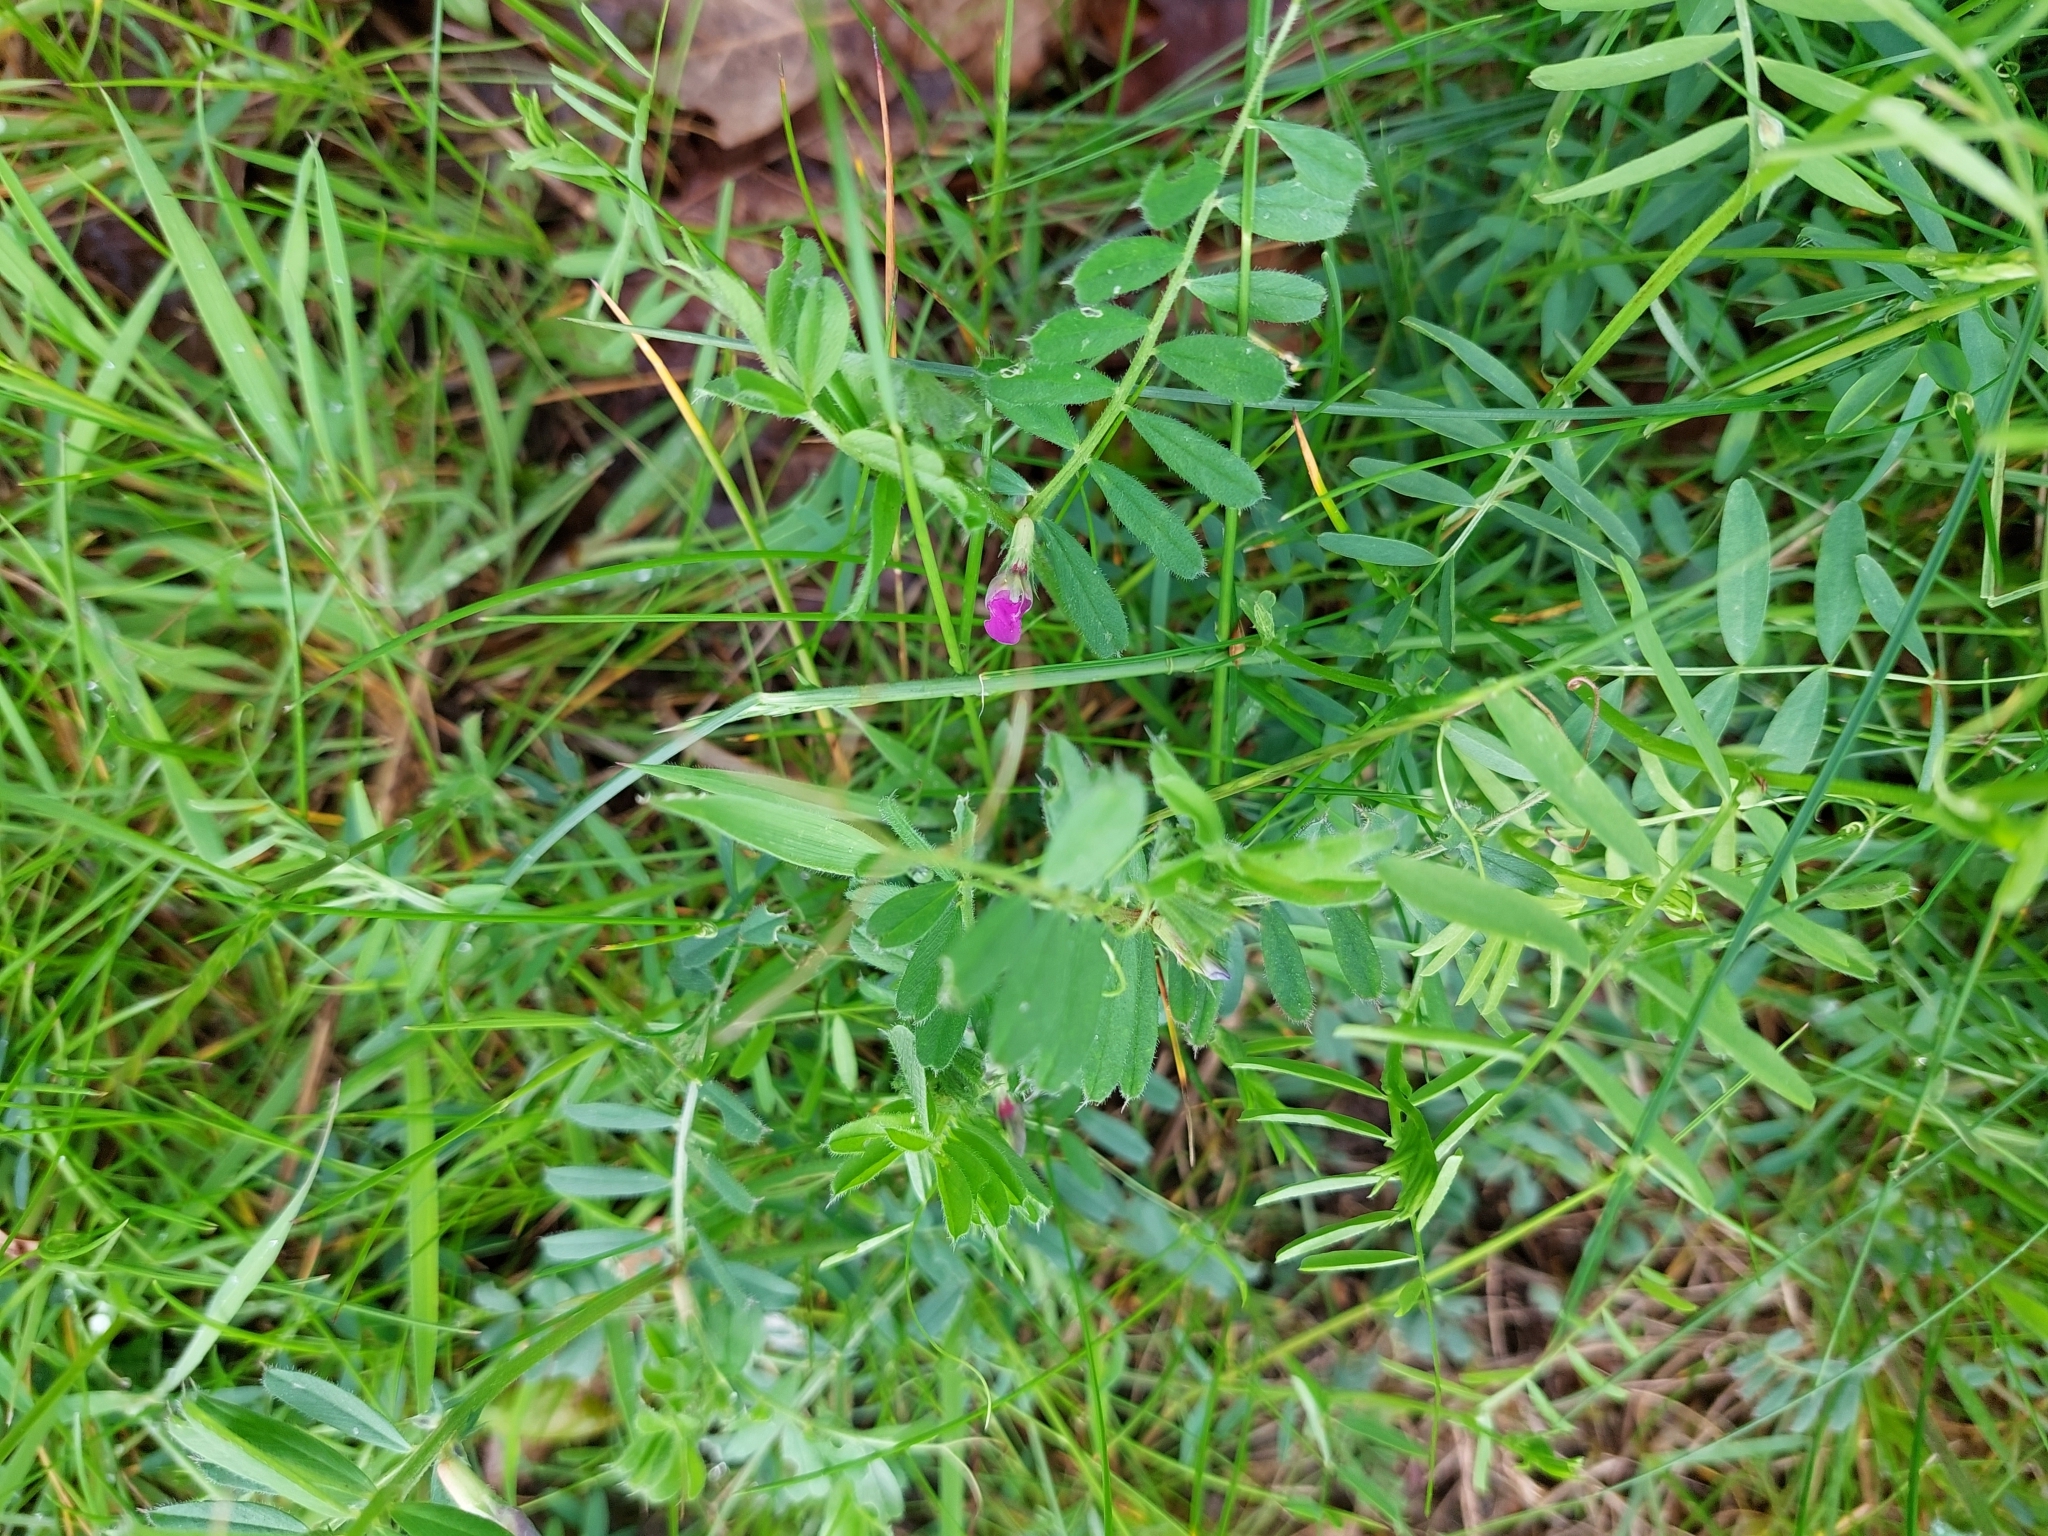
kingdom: Plantae
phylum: Tracheophyta
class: Magnoliopsida
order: Fabales
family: Fabaceae
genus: Vicia
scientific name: Vicia sativa
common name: Garden vetch
